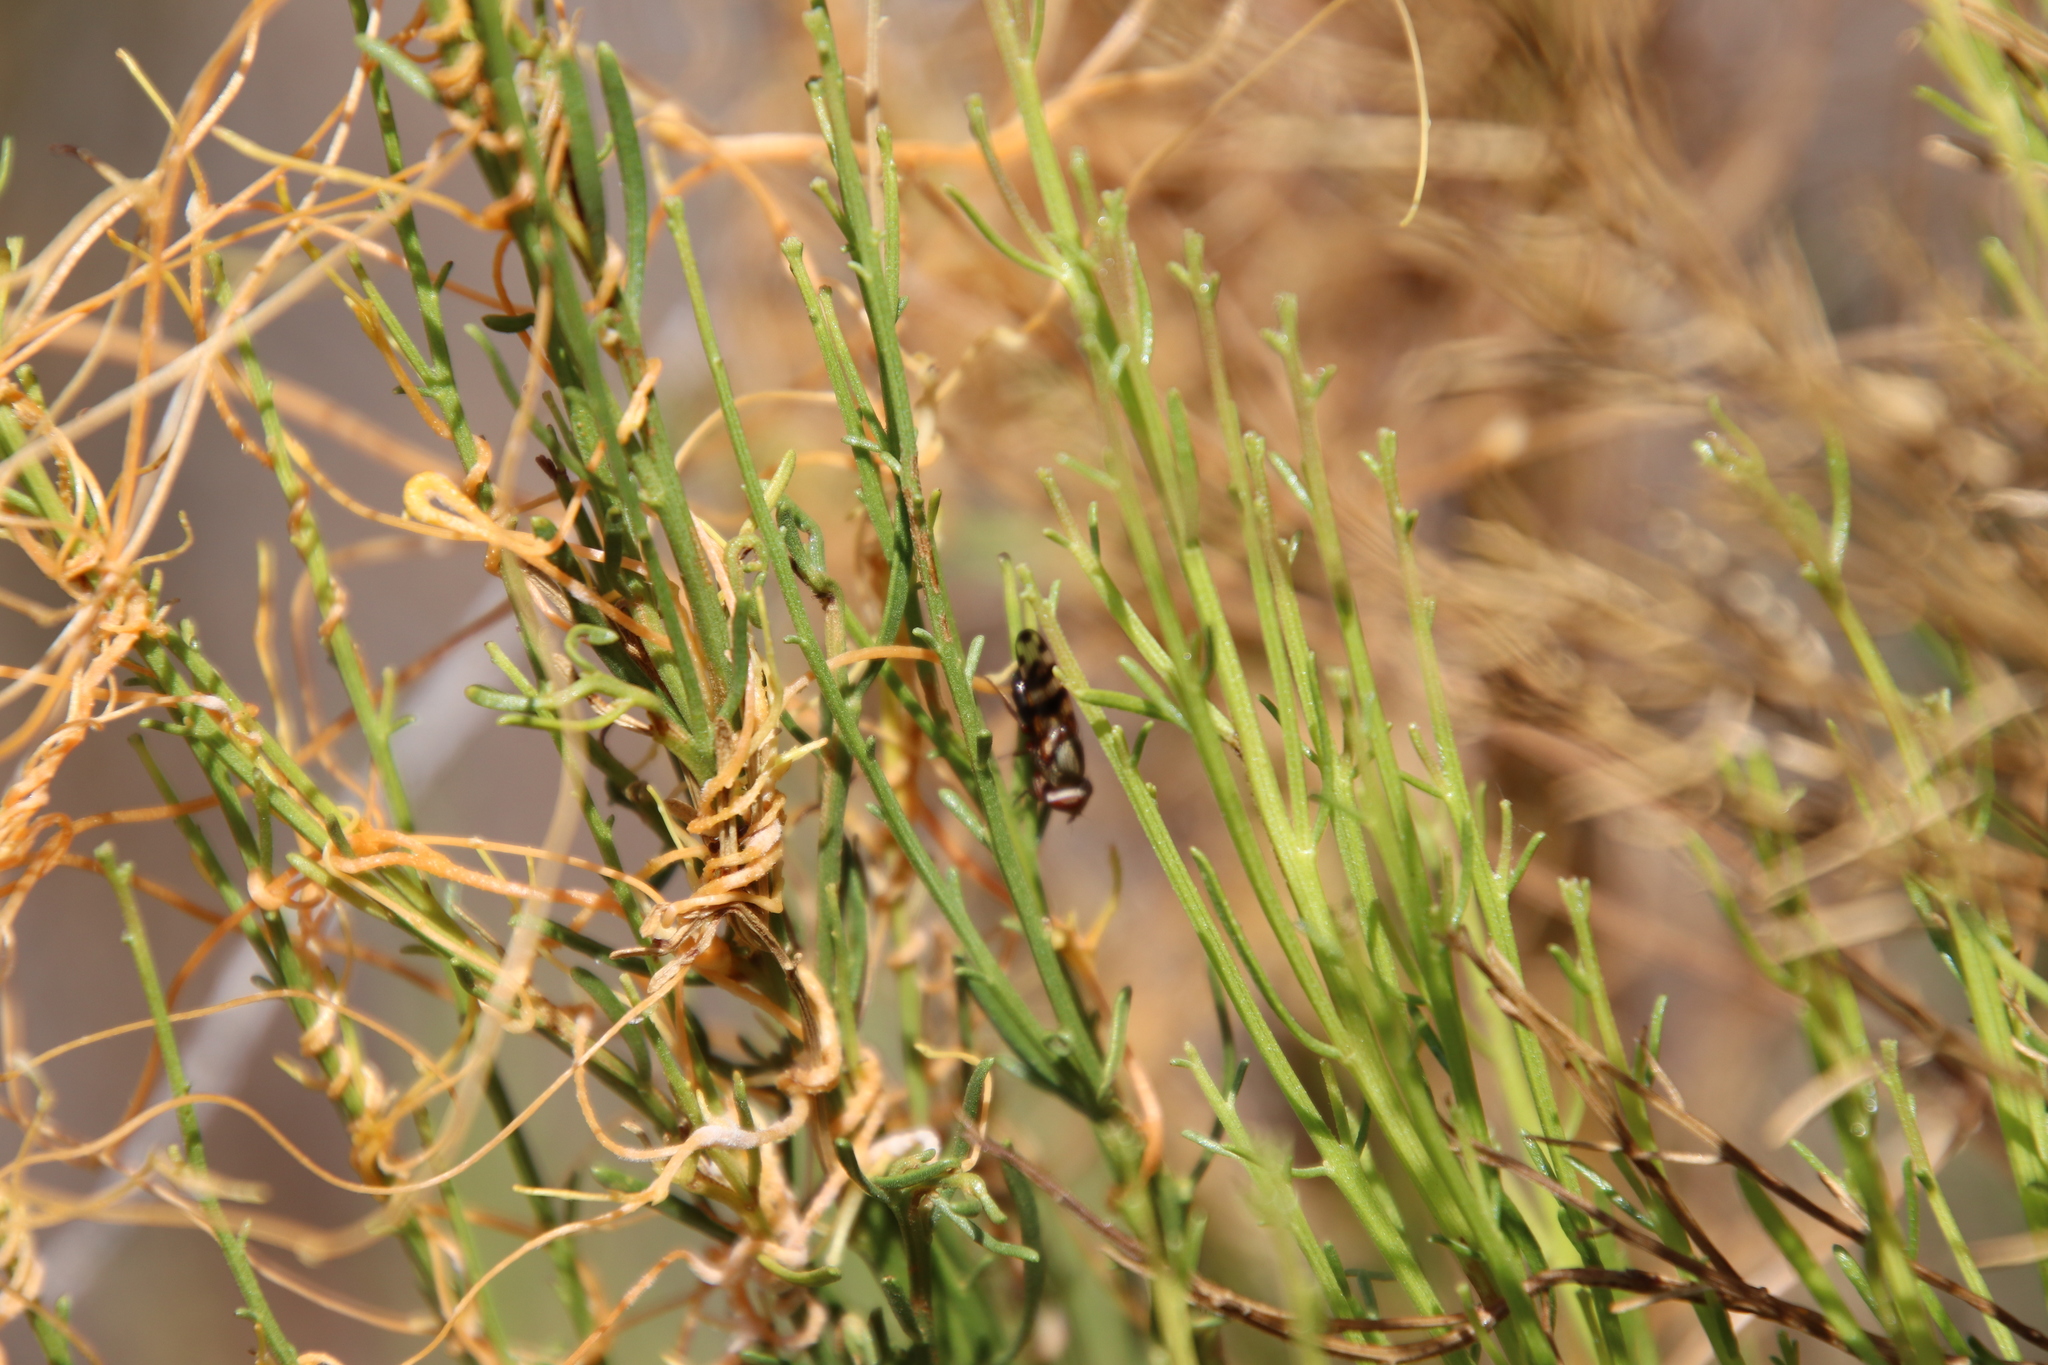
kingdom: Animalia
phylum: Arthropoda
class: Insecta
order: Diptera
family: Ulidiidae
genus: Ceroxys
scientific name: Ceroxys latiusculus
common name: Picture-winged fly
